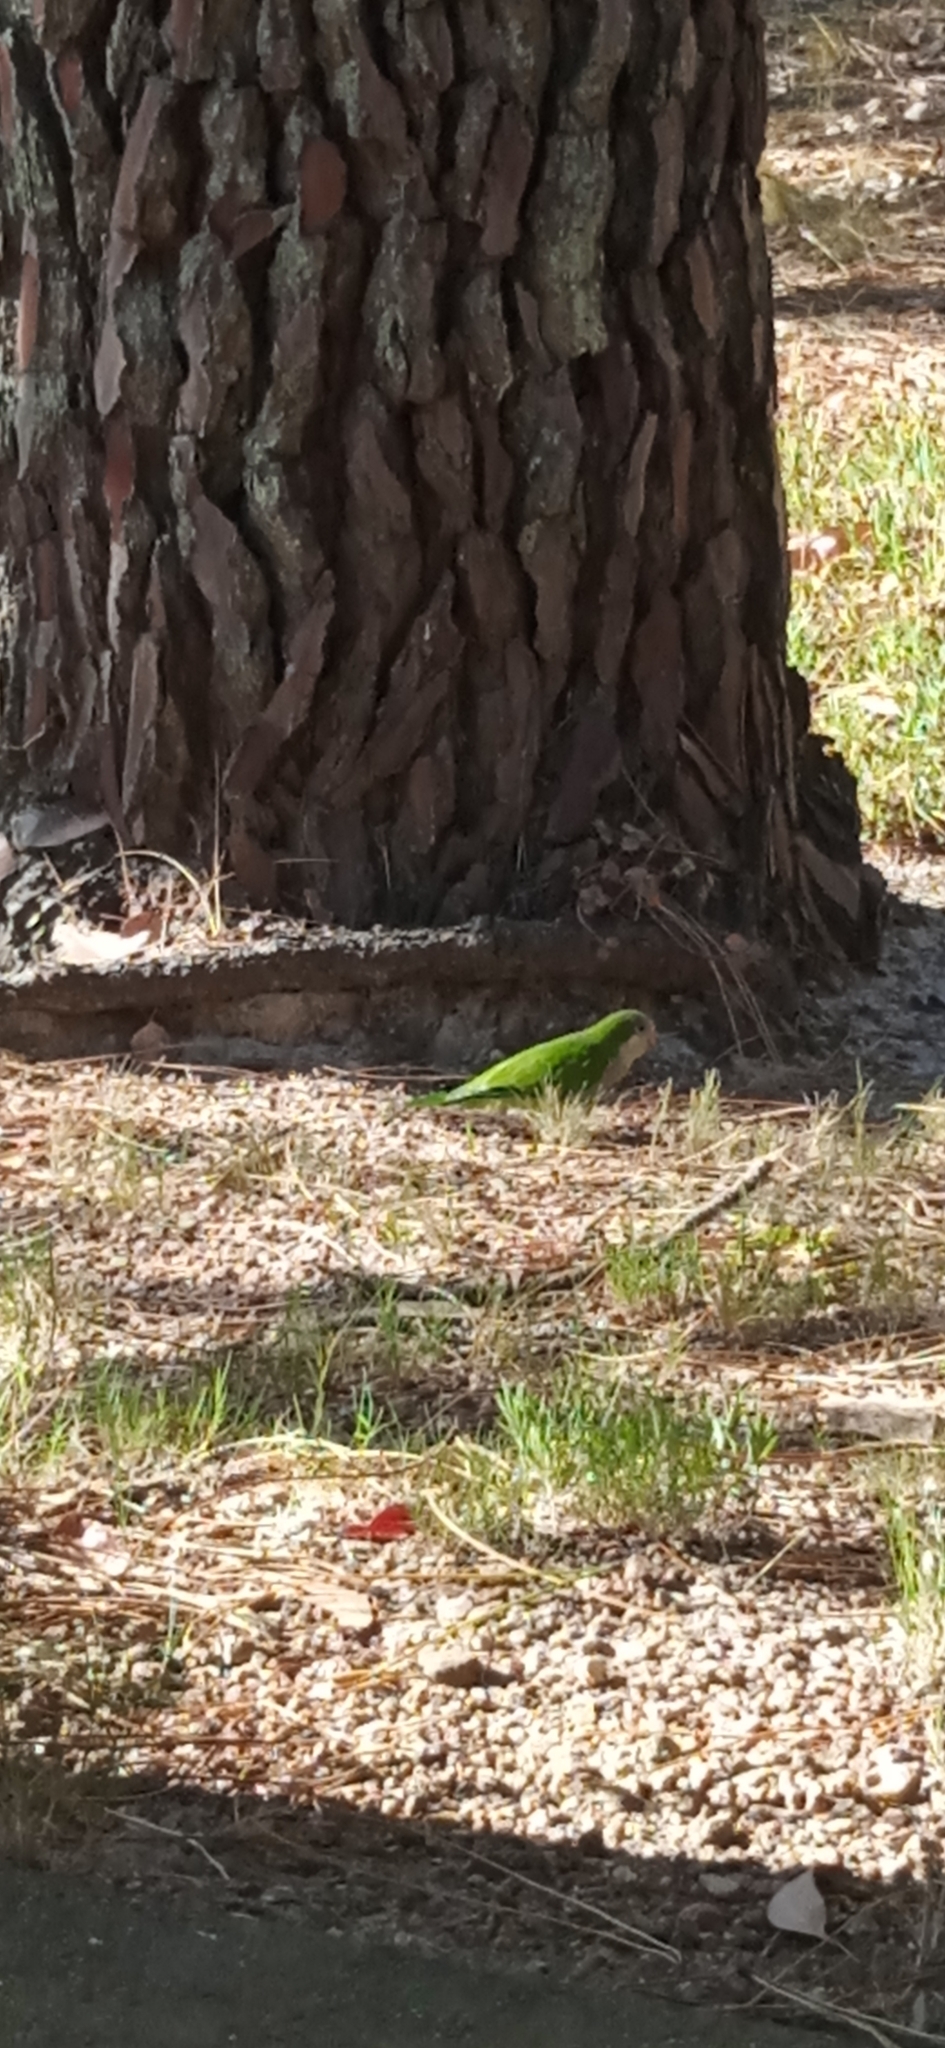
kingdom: Animalia
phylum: Chordata
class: Aves
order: Psittaciformes
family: Psittacidae
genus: Myiopsitta
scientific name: Myiopsitta monachus
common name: Monk parakeet
